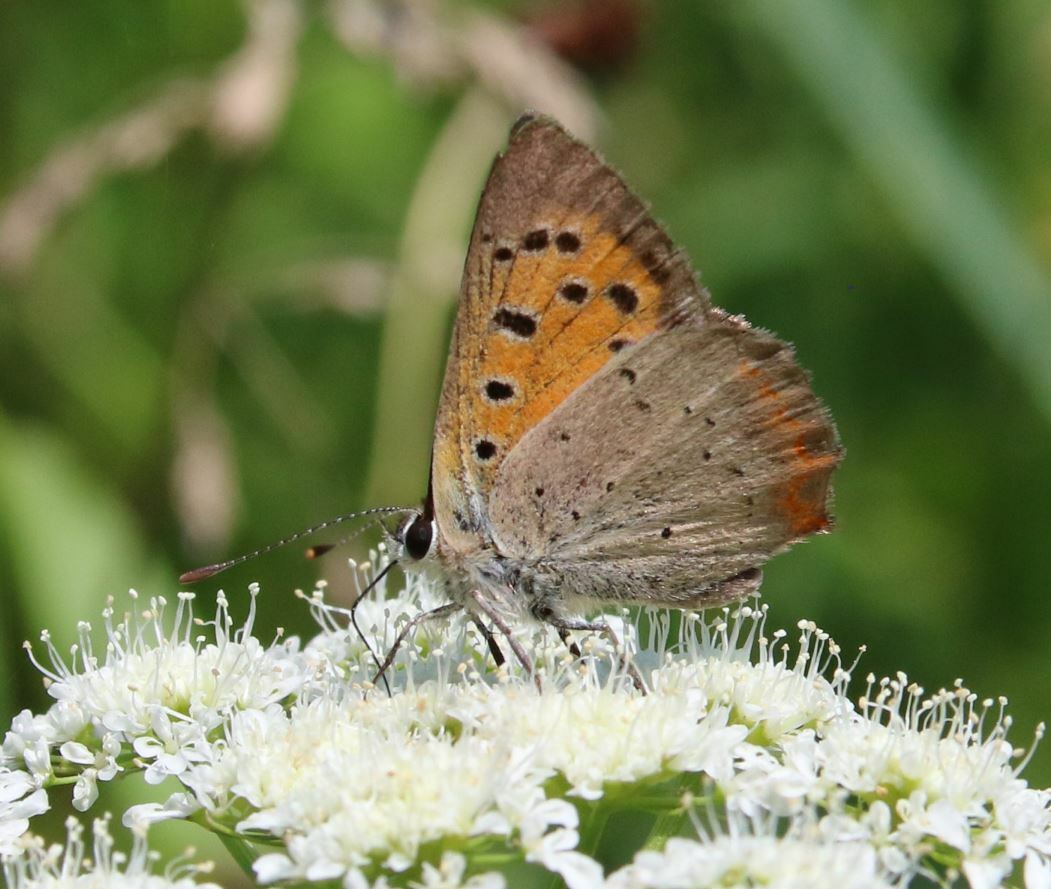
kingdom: Animalia
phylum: Arthropoda
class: Insecta
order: Lepidoptera
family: Lycaenidae
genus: Lycaena
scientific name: Lycaena phlaeas
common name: Small copper
